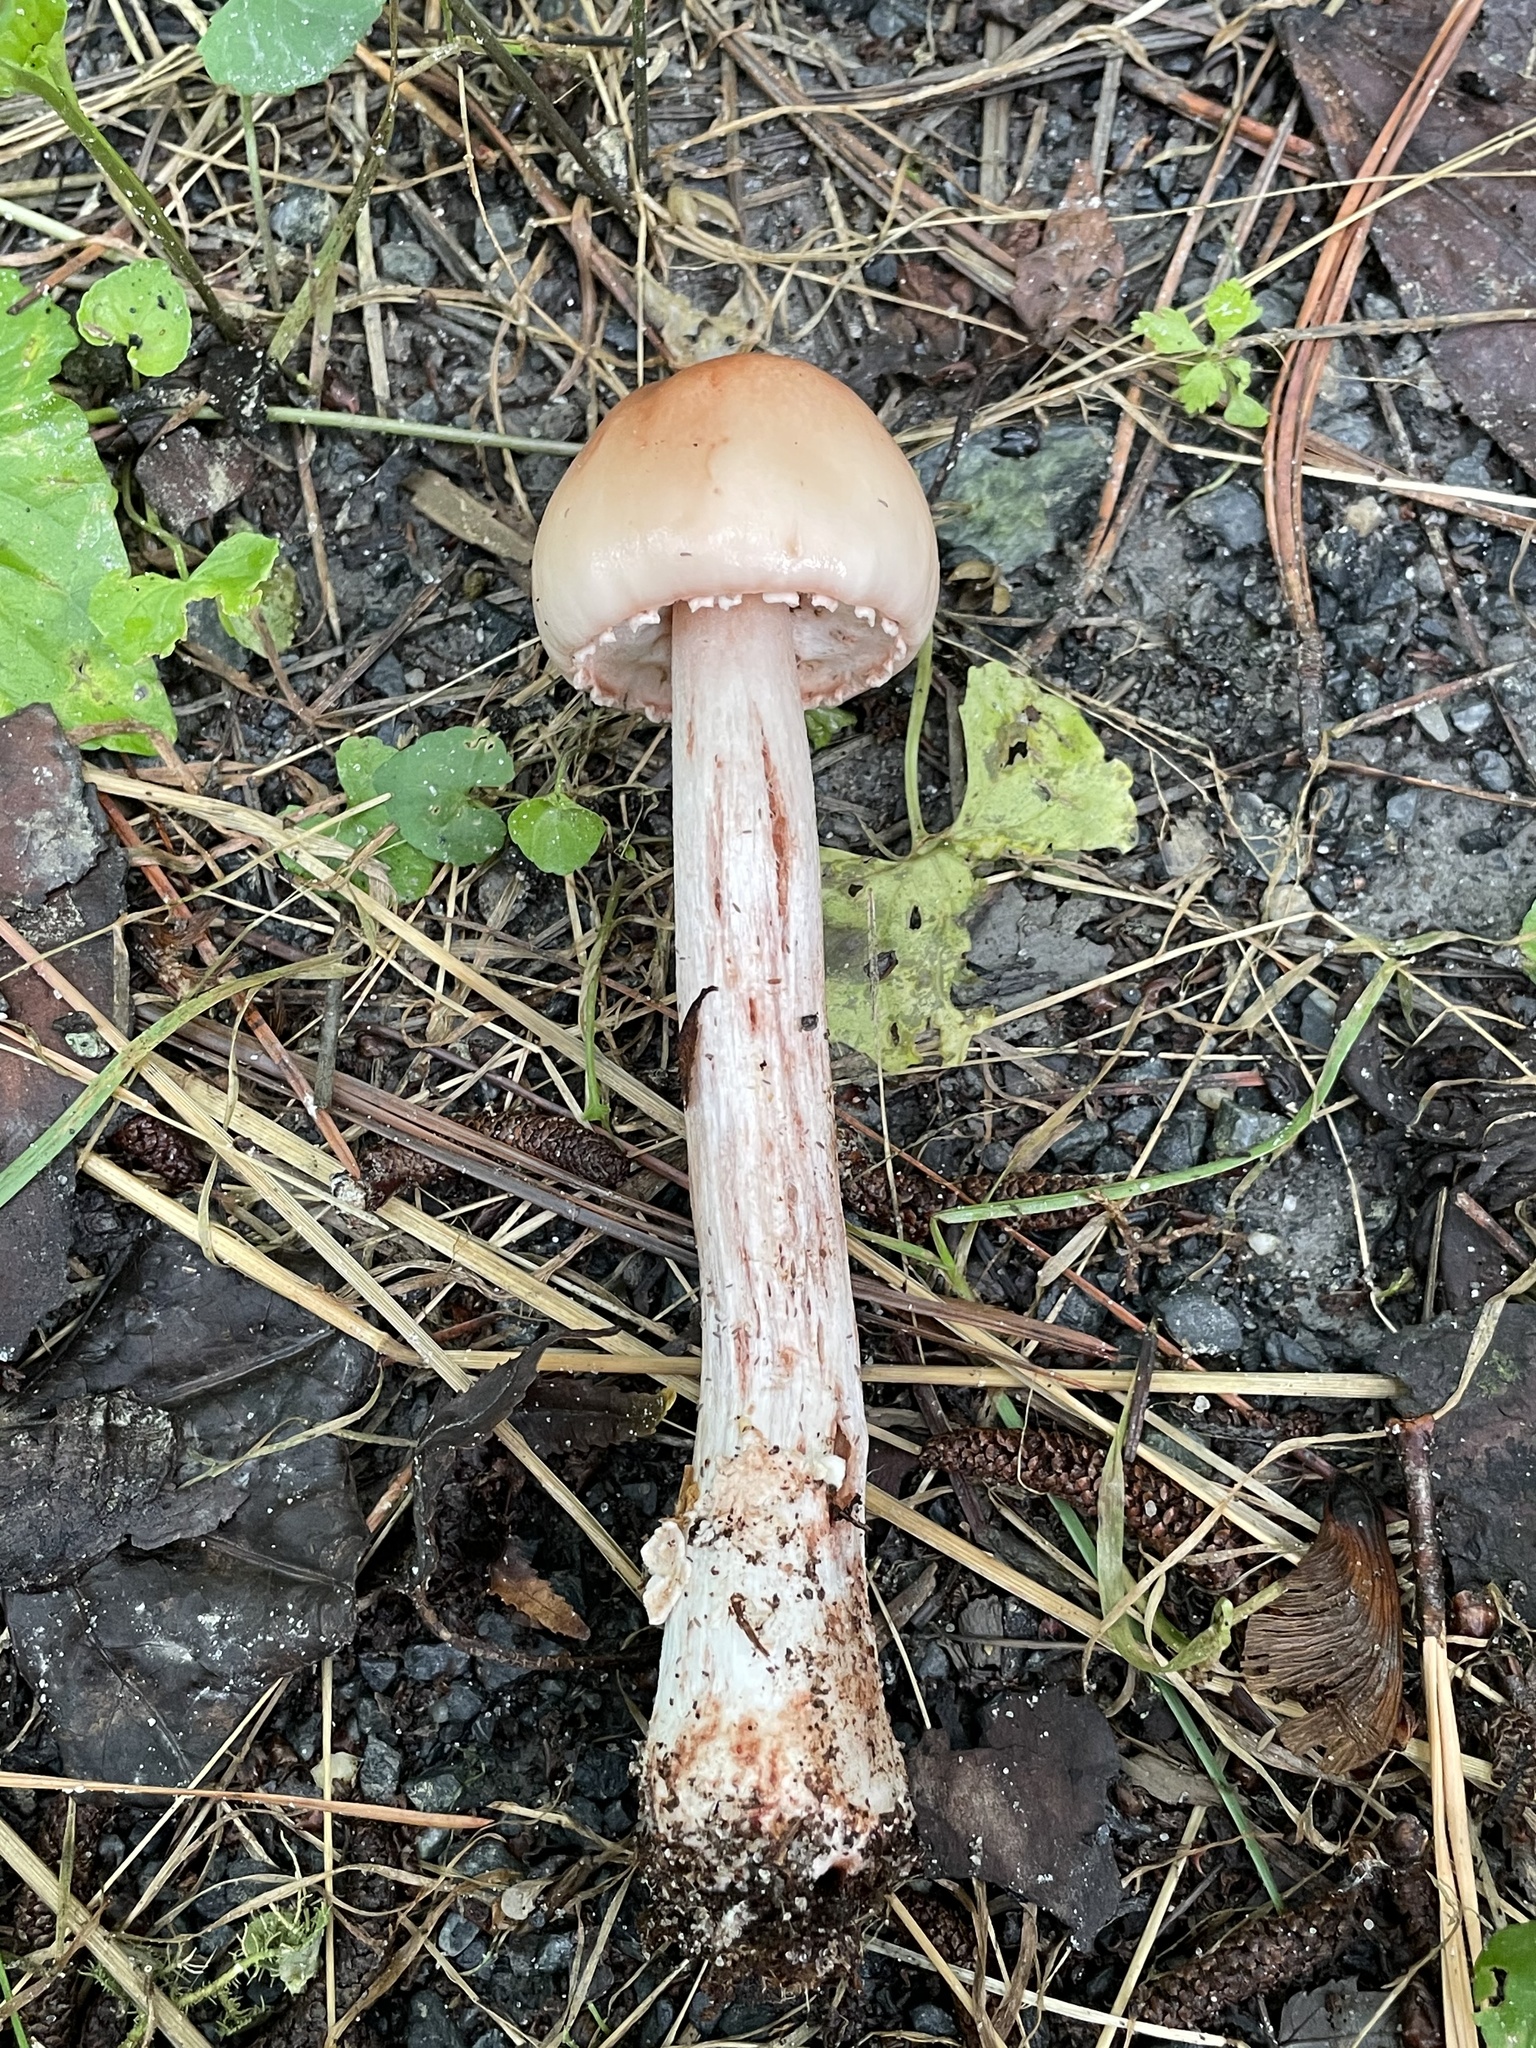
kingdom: Fungi
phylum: Basidiomycota
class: Agaricomycetes
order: Agaricales
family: Amanitaceae
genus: Amanita
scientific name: Amanita
